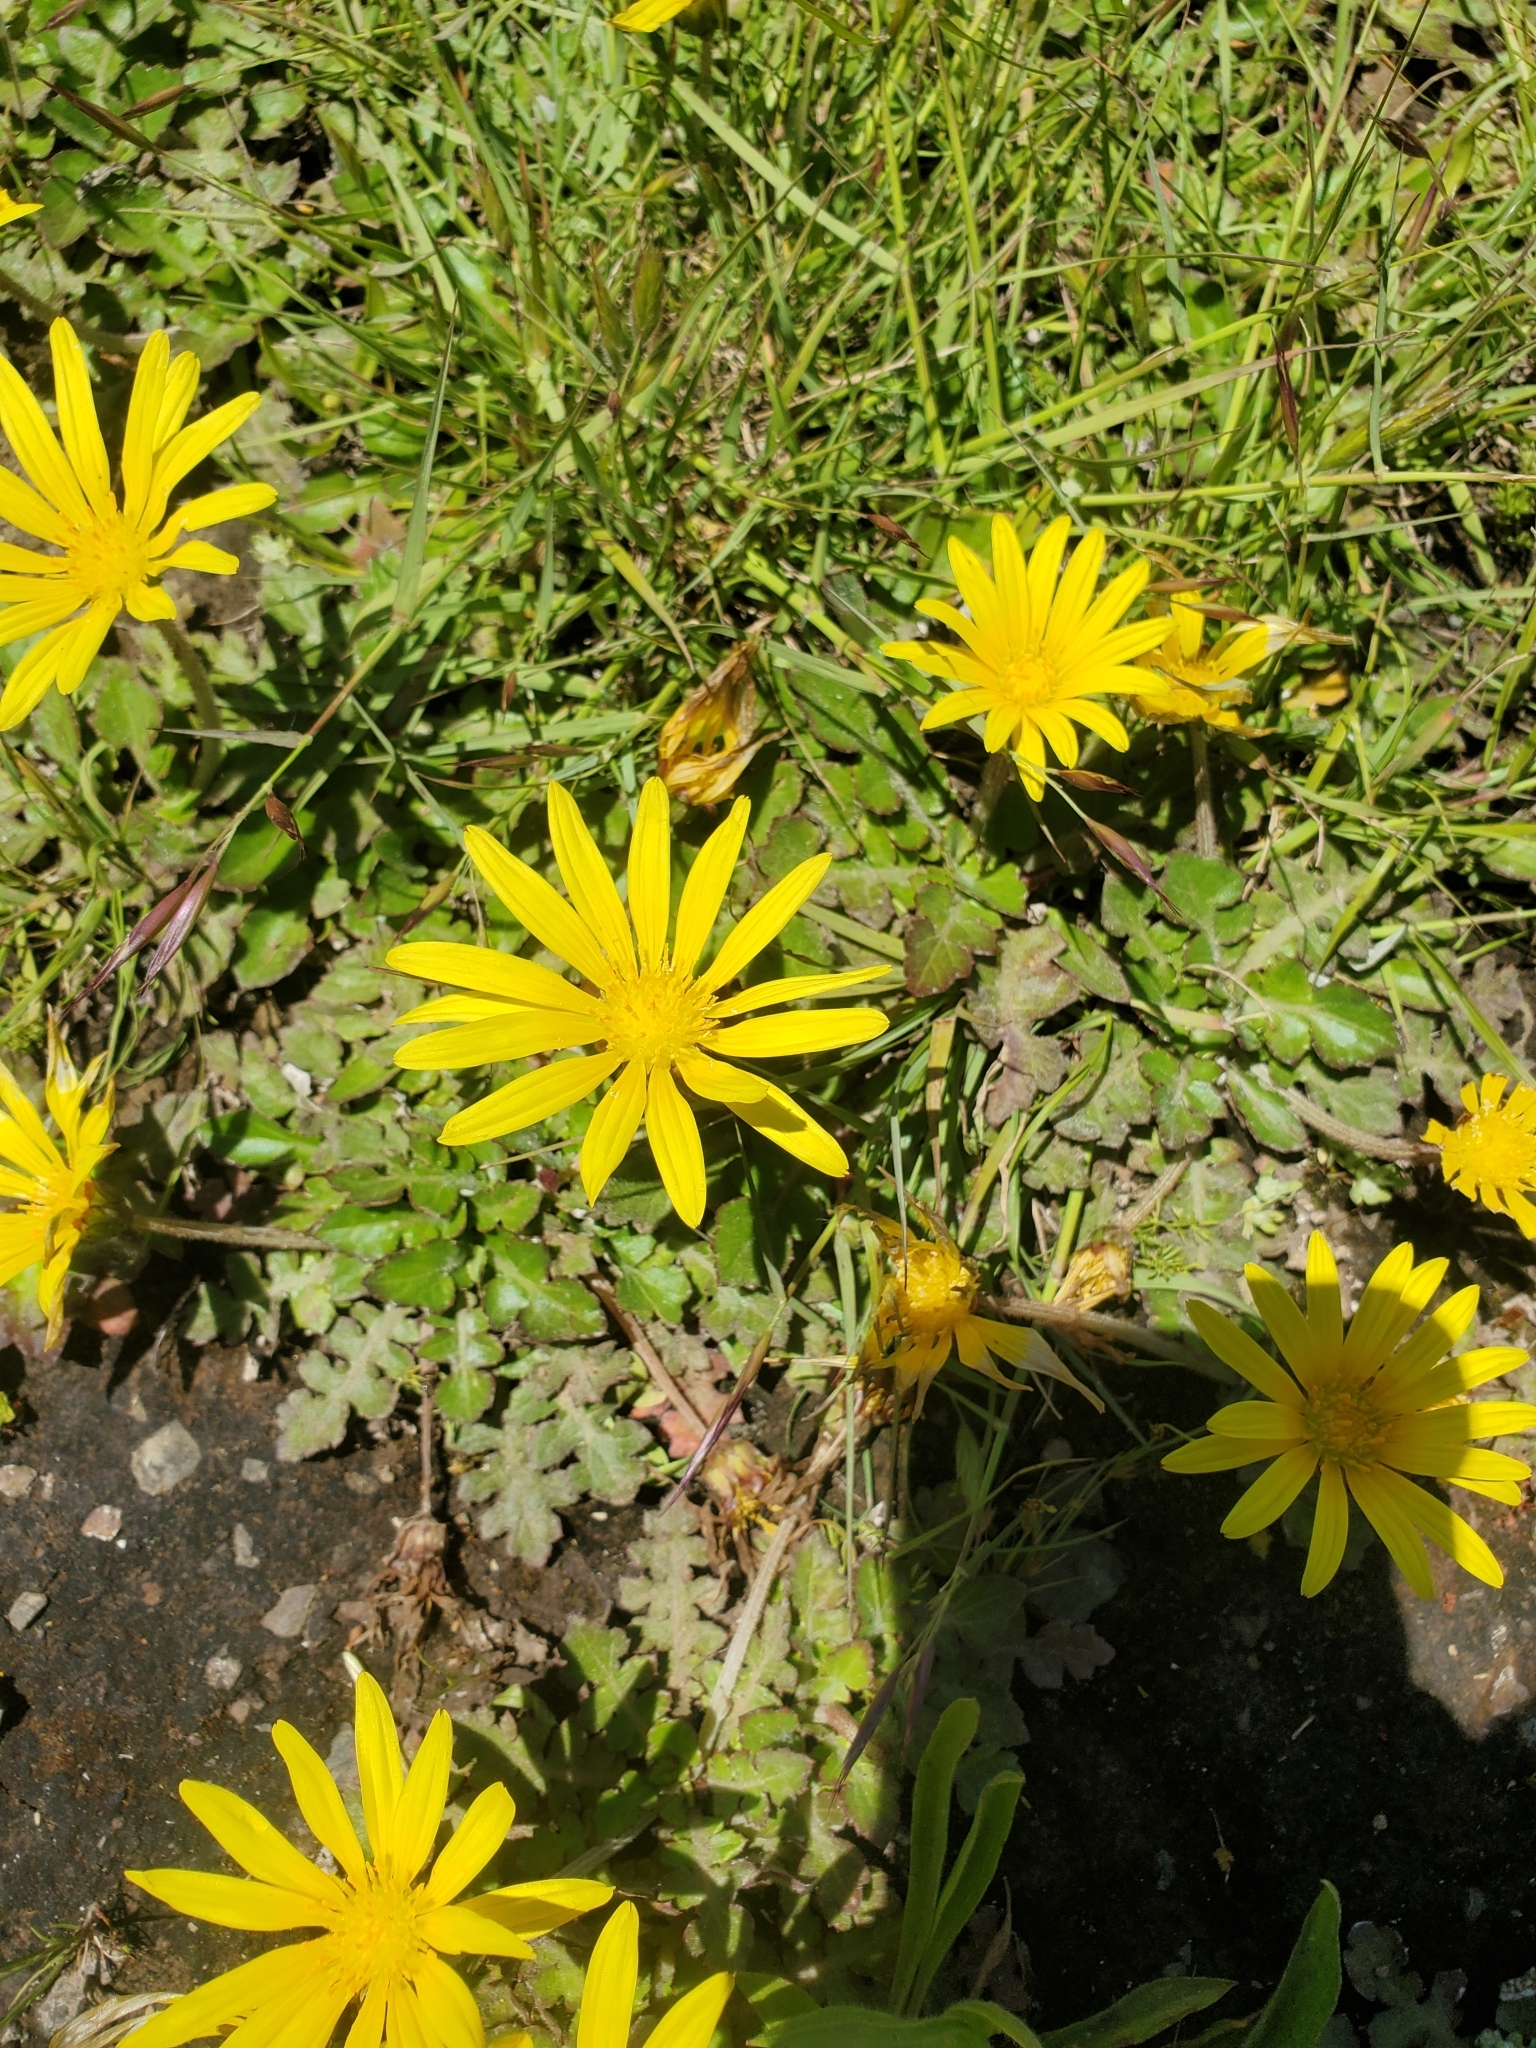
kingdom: Plantae
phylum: Tracheophyta
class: Magnoliopsida
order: Asterales
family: Asteraceae
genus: Arctotheca
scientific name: Arctotheca prostrata
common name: Capeweed
